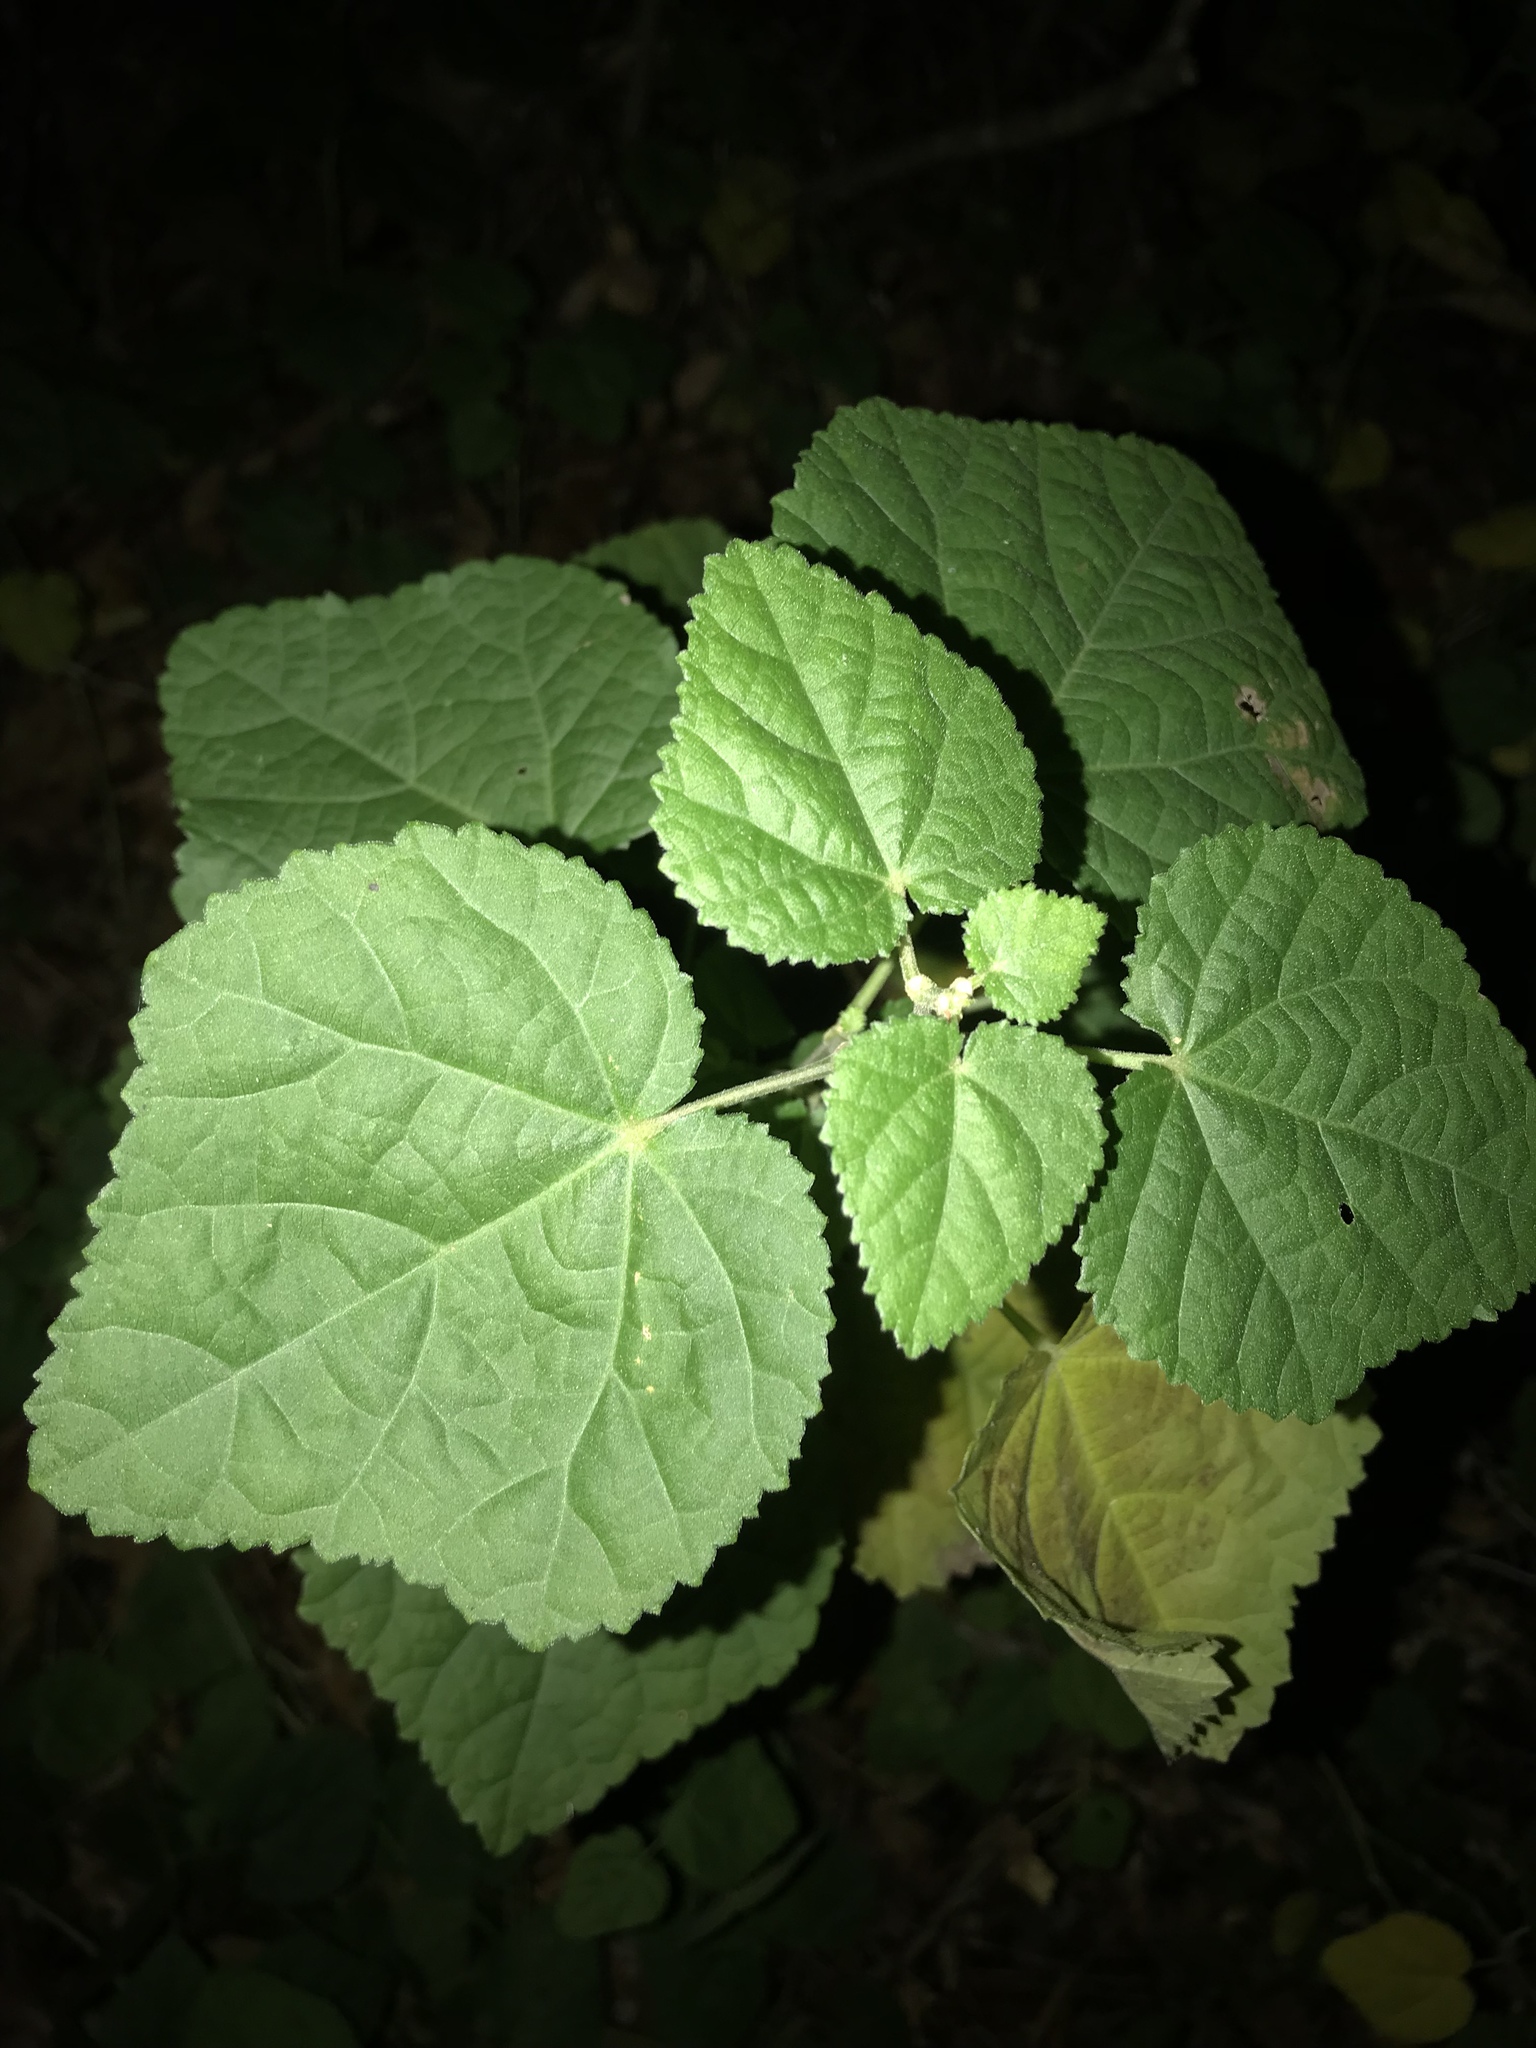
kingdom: Plantae
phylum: Tracheophyta
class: Magnoliopsida
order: Malvales
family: Malvaceae
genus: Malvaviscus
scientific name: Malvaviscus arboreus
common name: Wax mallow
